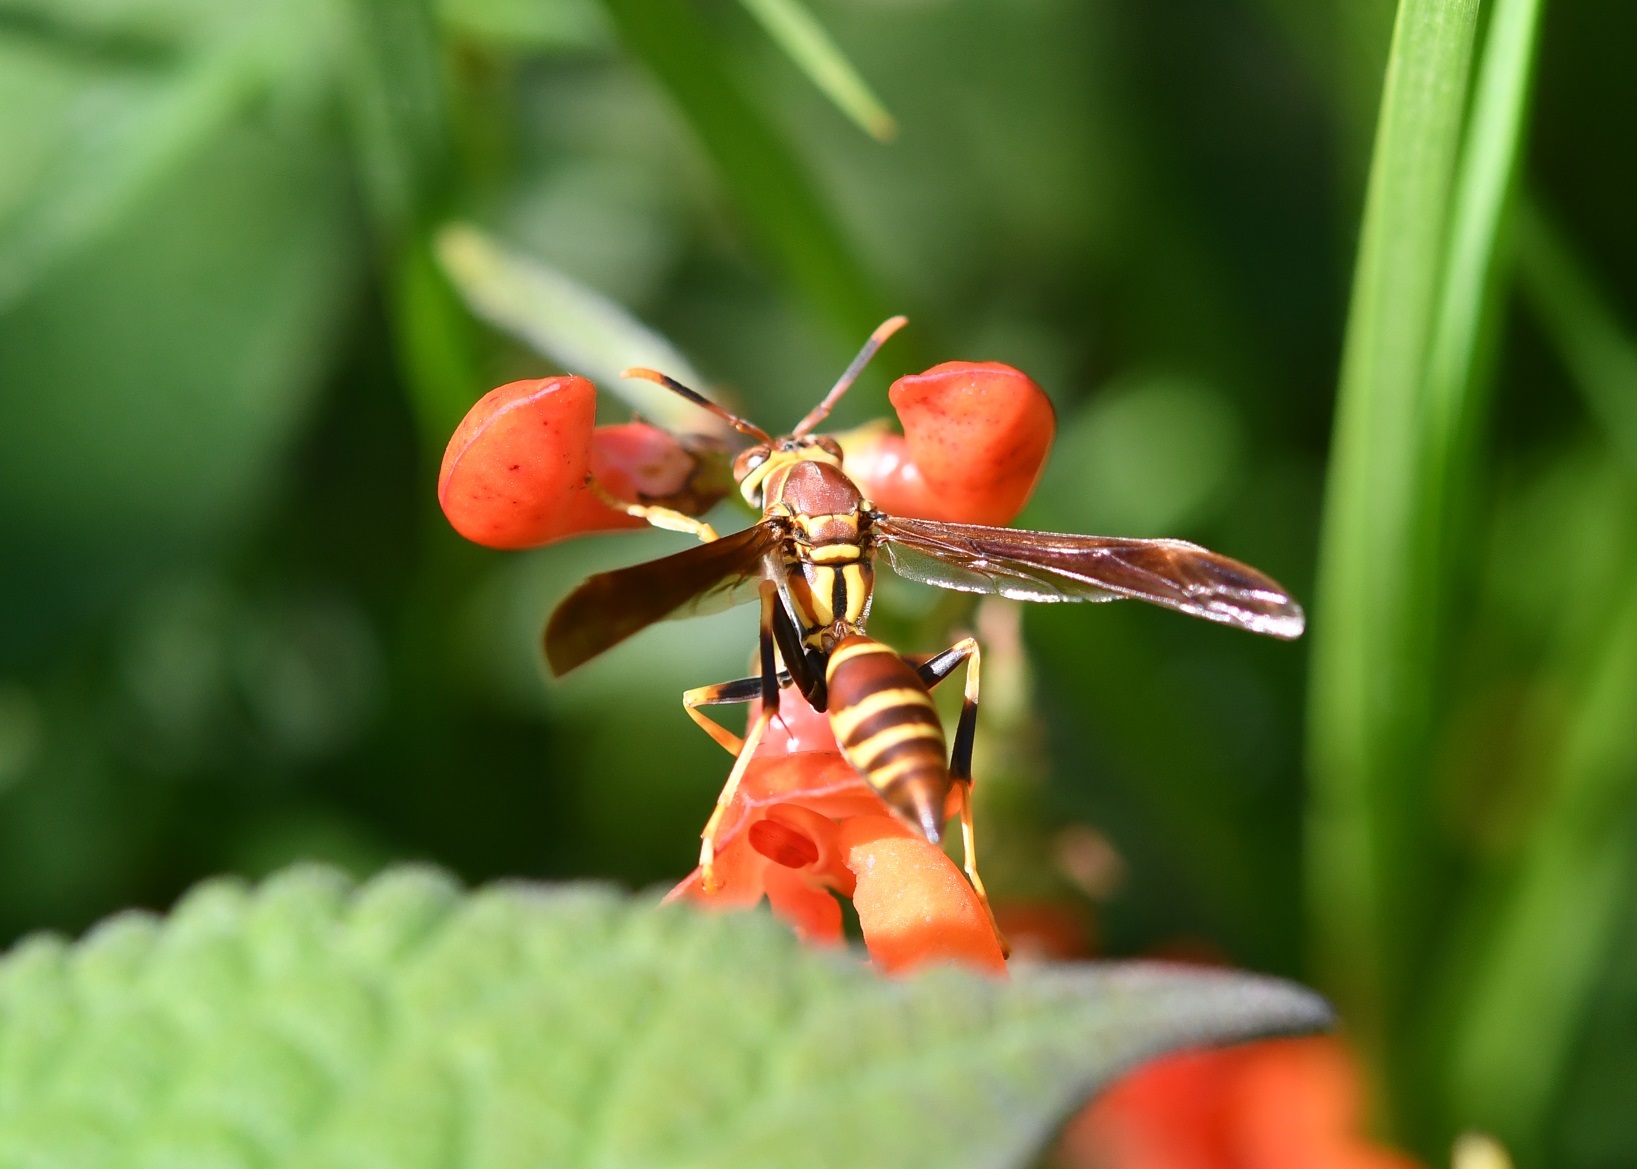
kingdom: Animalia
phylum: Arthropoda
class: Insecta
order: Hymenoptera
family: Eumenidae
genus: Polistes
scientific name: Polistes instabilis
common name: Unstable paper wasp
